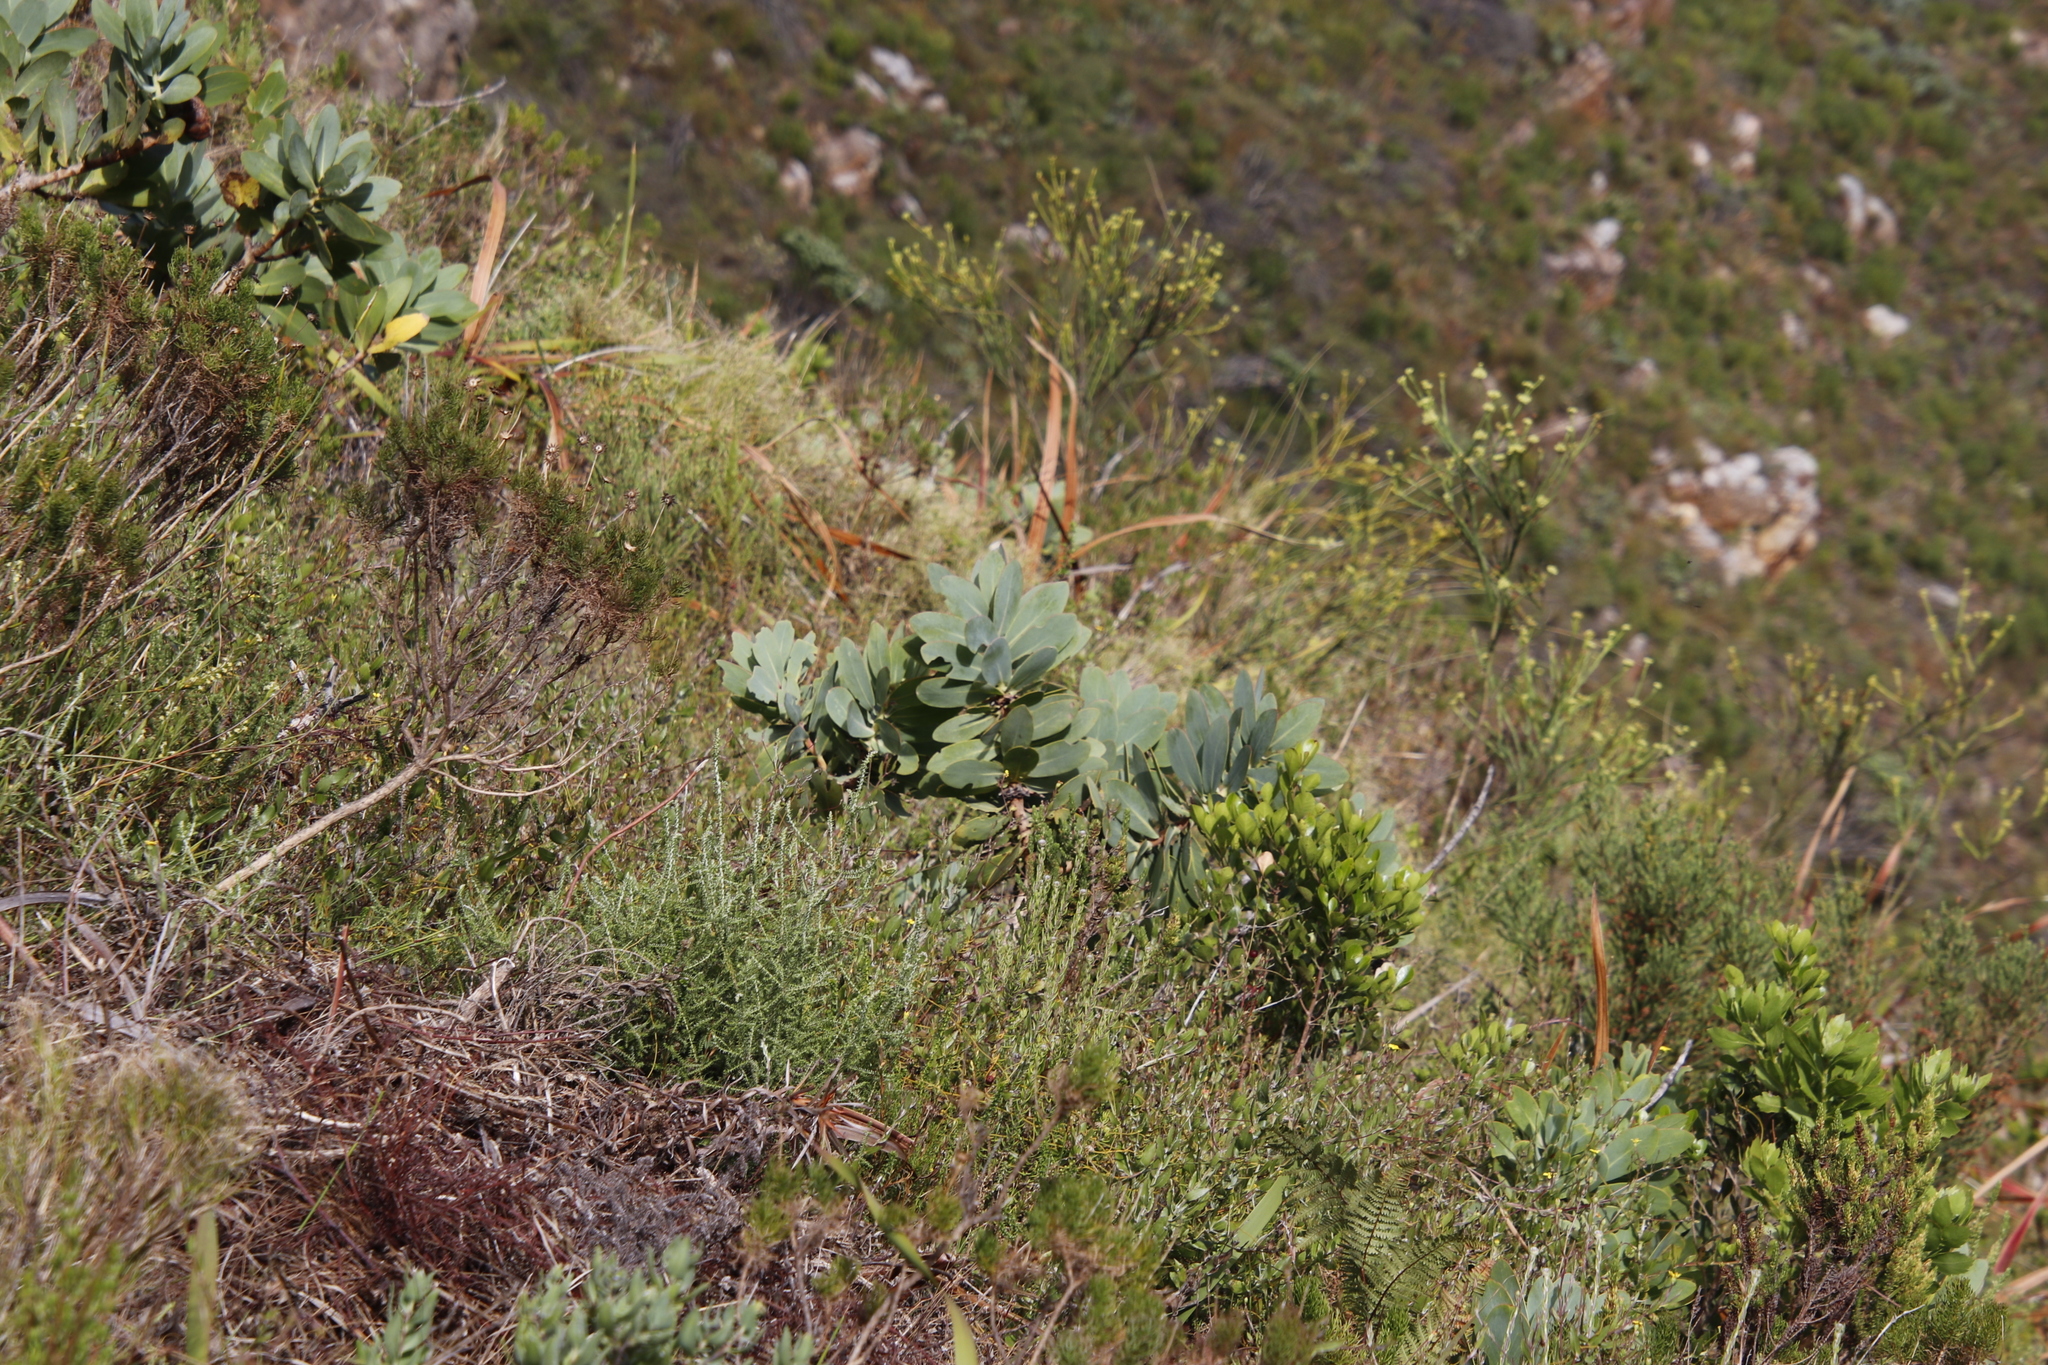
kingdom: Plantae
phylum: Tracheophyta
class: Magnoliopsida
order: Proteales
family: Proteaceae
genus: Protea
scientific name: Protea nitida
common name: Tree protea
